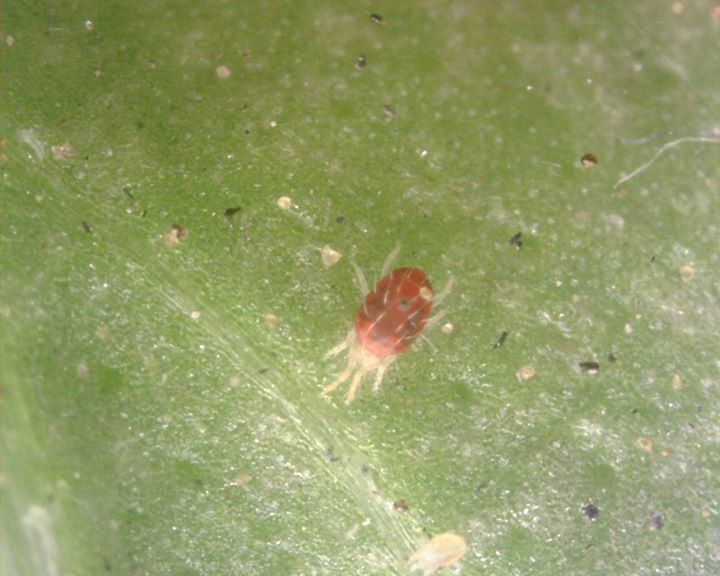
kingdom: Animalia
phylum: Arthropoda
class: Arachnida
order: Trombidiformes
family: Tetranychidae
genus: Tetranychus
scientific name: Tetranychus urticae
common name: Carmine spider mite
